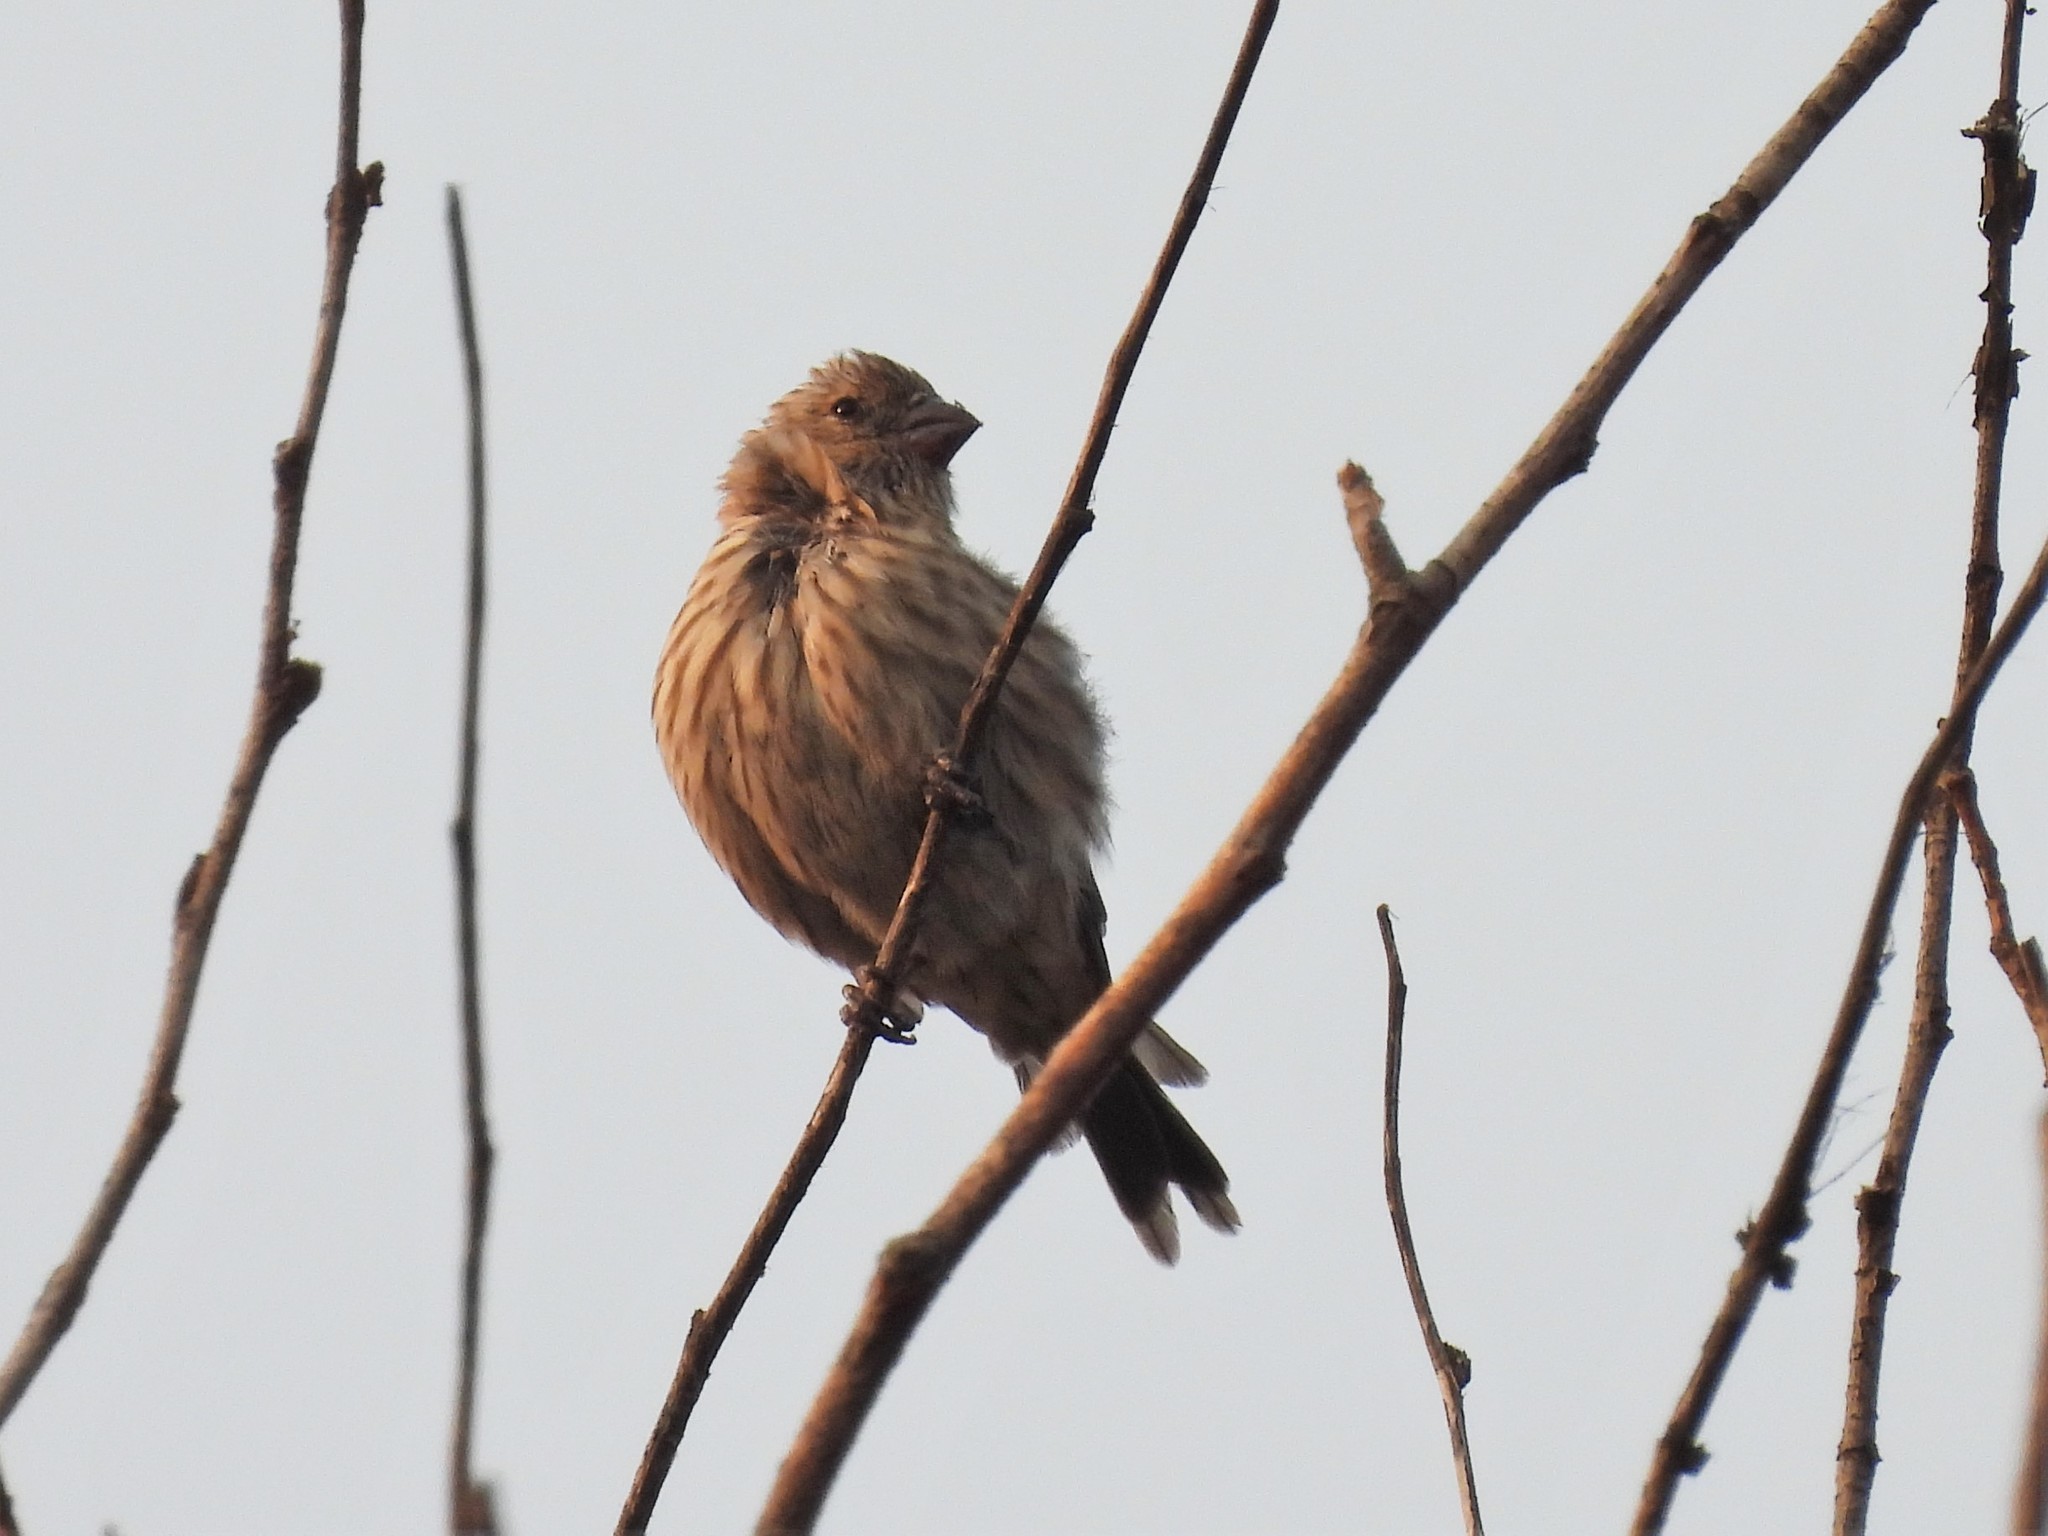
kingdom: Animalia
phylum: Chordata
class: Aves
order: Passeriformes
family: Fringillidae
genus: Haemorhous
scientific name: Haemorhous mexicanus
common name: House finch
